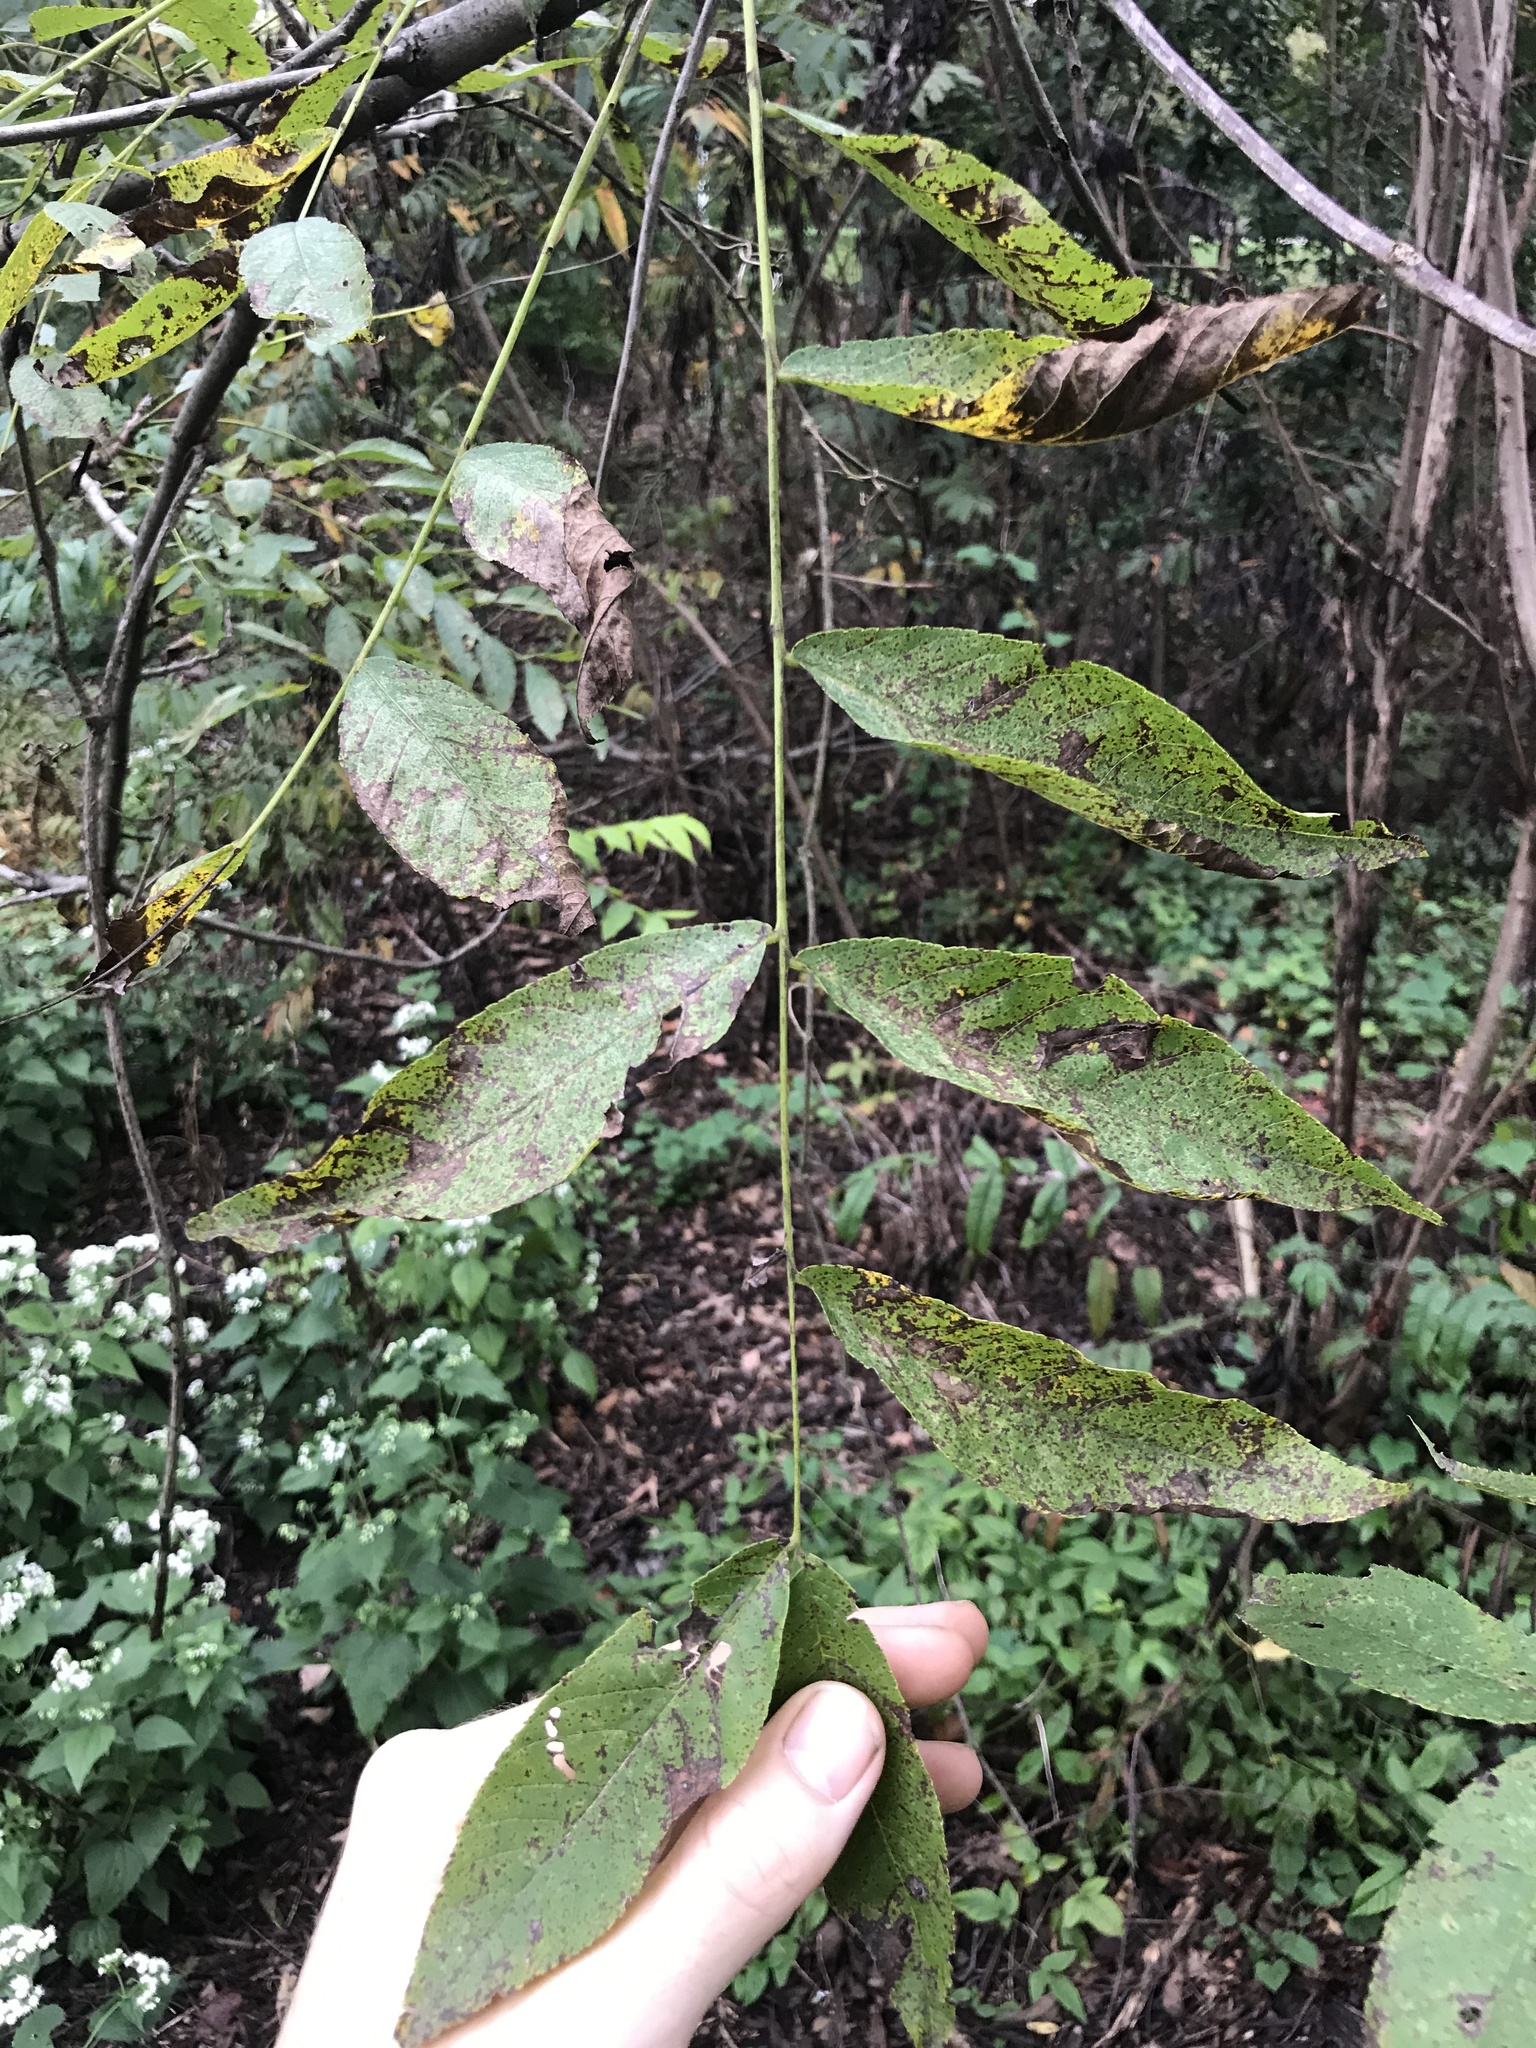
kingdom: Plantae
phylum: Tracheophyta
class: Magnoliopsida
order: Fagales
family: Juglandaceae
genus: Juglans
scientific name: Juglans nigra
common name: Black walnut
